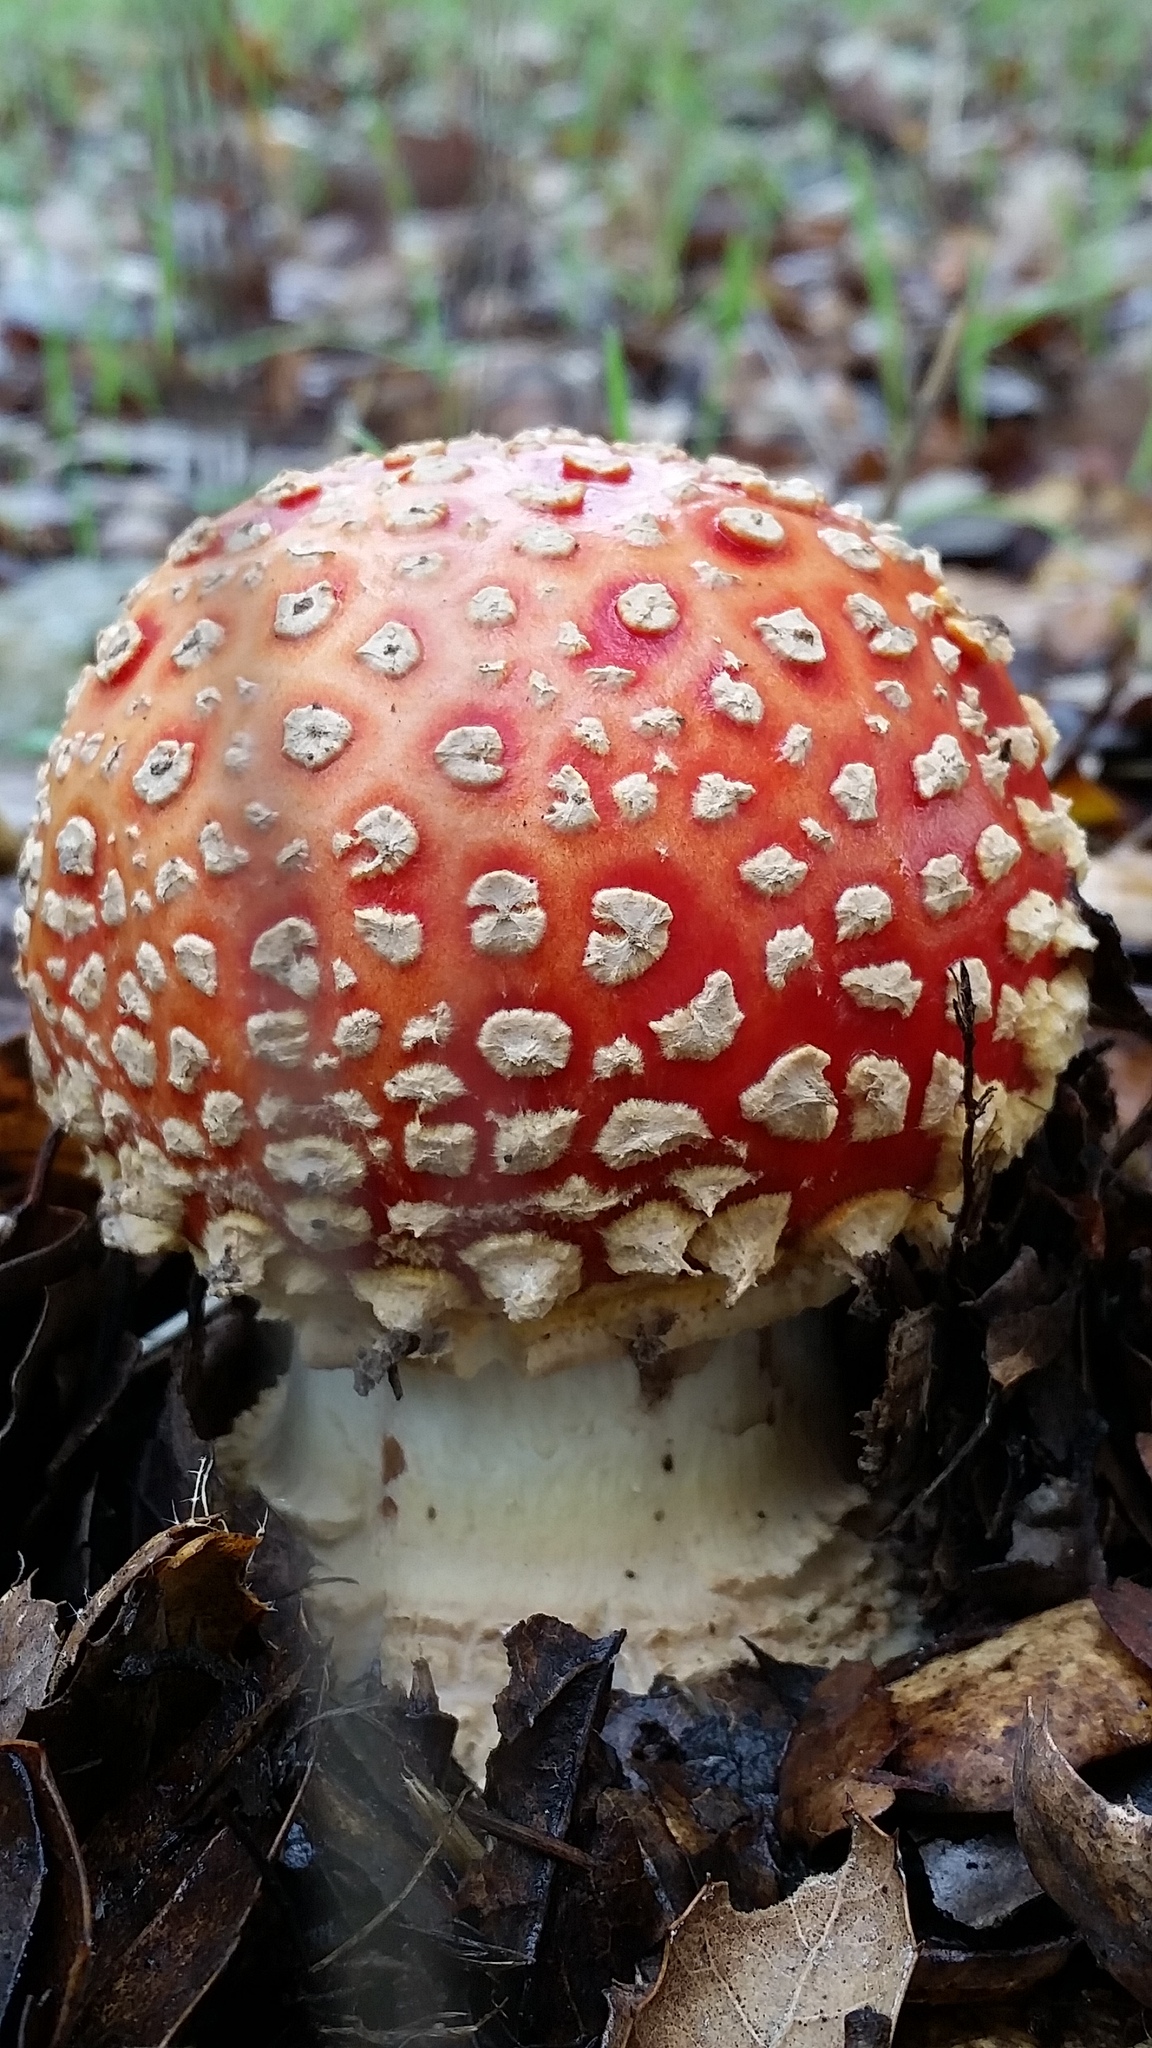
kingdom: Fungi
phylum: Basidiomycota
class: Agaricomycetes
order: Agaricales
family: Amanitaceae
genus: Amanita
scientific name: Amanita muscaria
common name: Fly agaric
